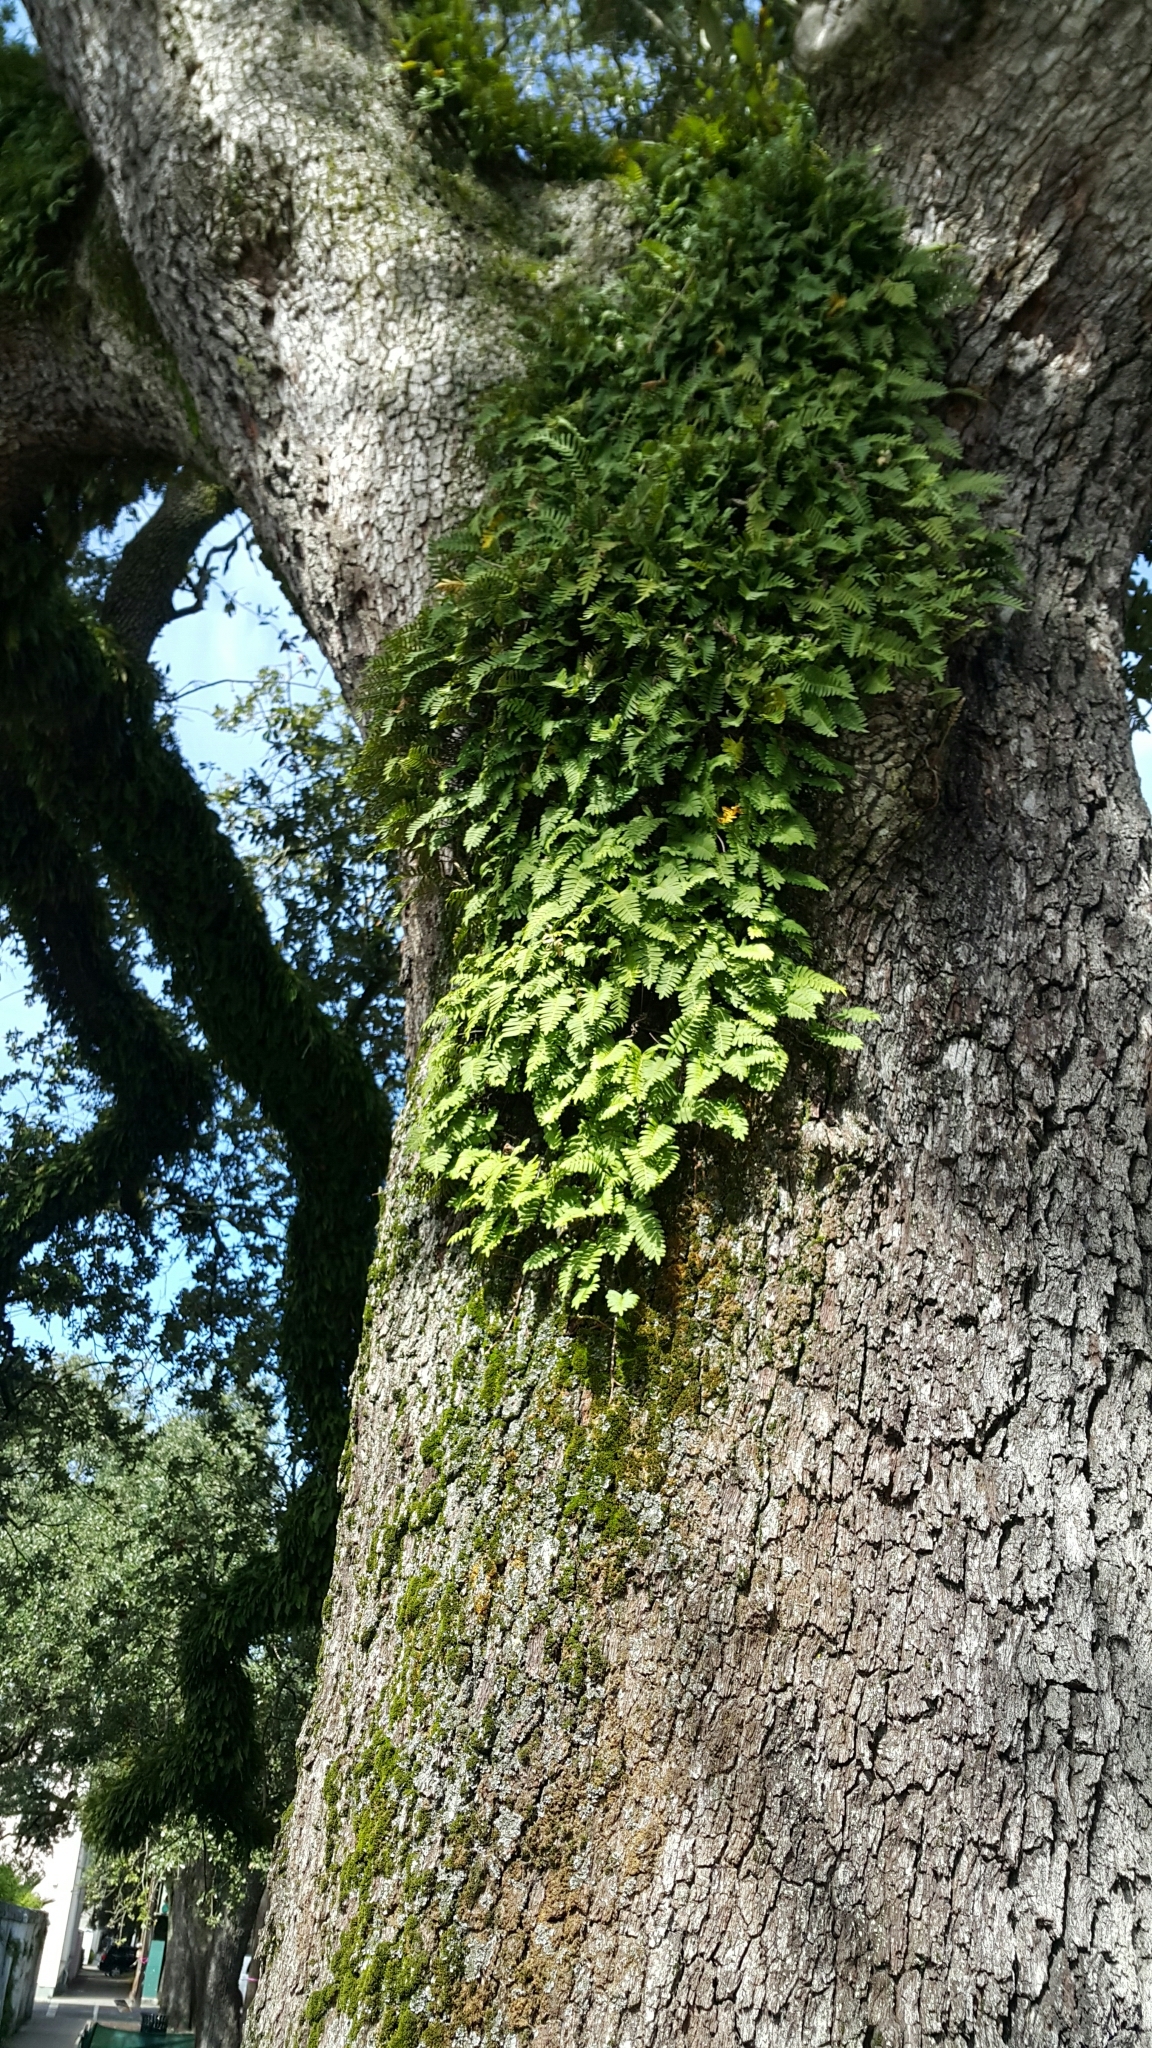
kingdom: Plantae
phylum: Tracheophyta
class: Polypodiopsida
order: Polypodiales
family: Polypodiaceae
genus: Pleopeltis
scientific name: Pleopeltis michauxiana
